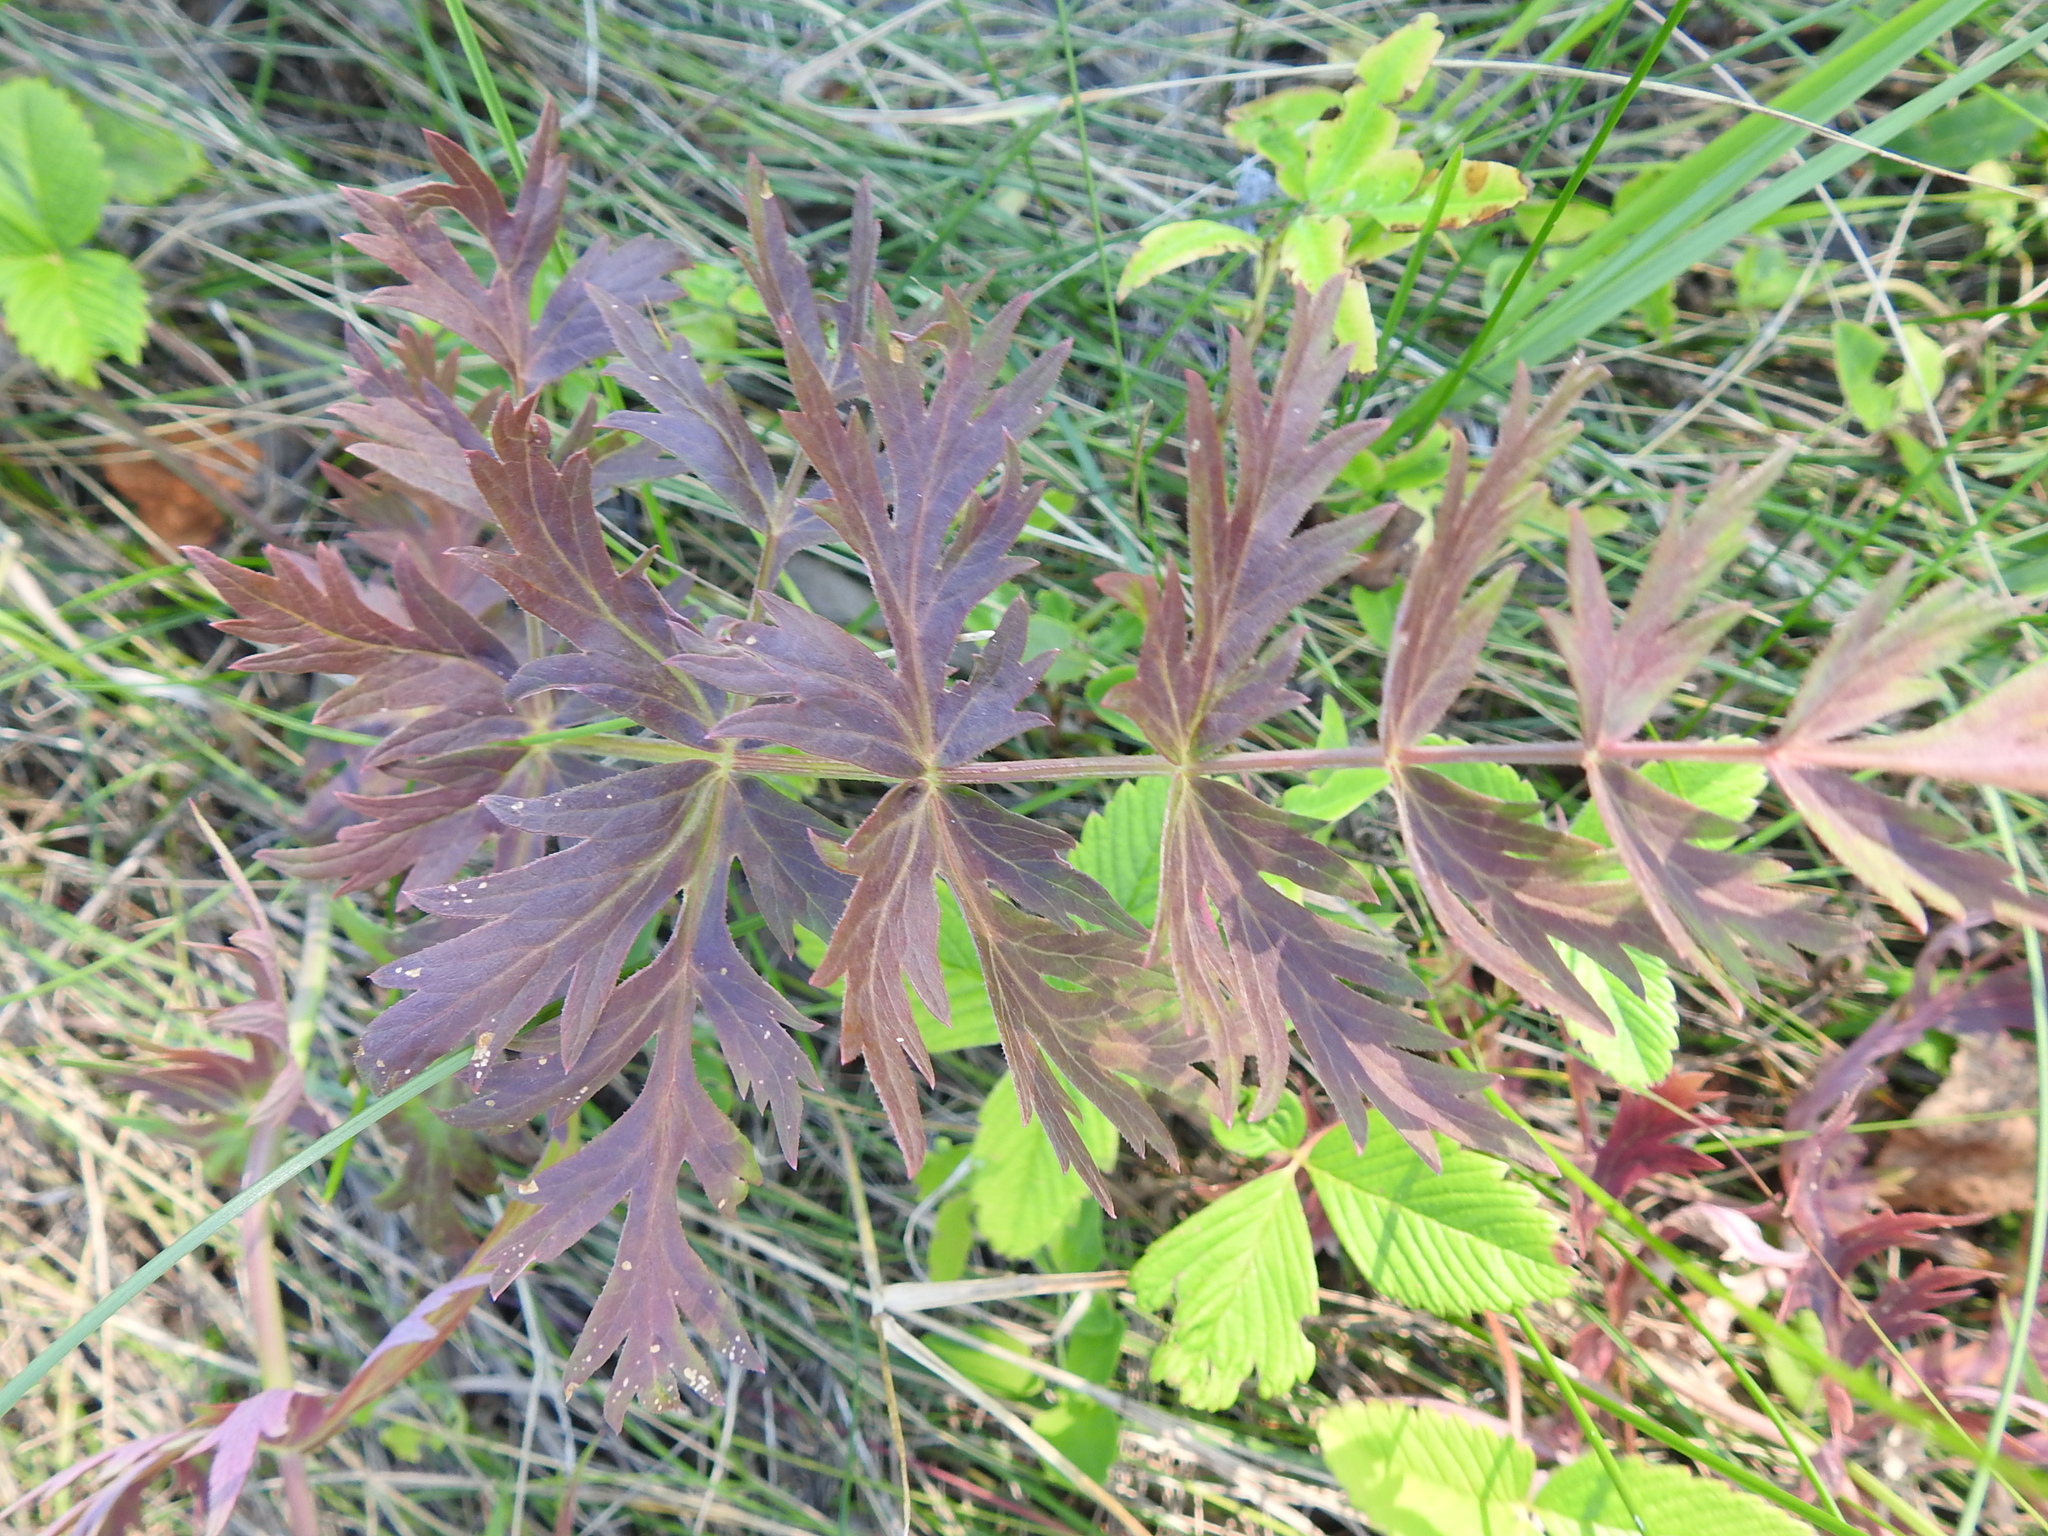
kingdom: Plantae
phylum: Tracheophyta
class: Magnoliopsida
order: Apiales
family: Apiaceae
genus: Seseli
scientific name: Seseli krylovii
